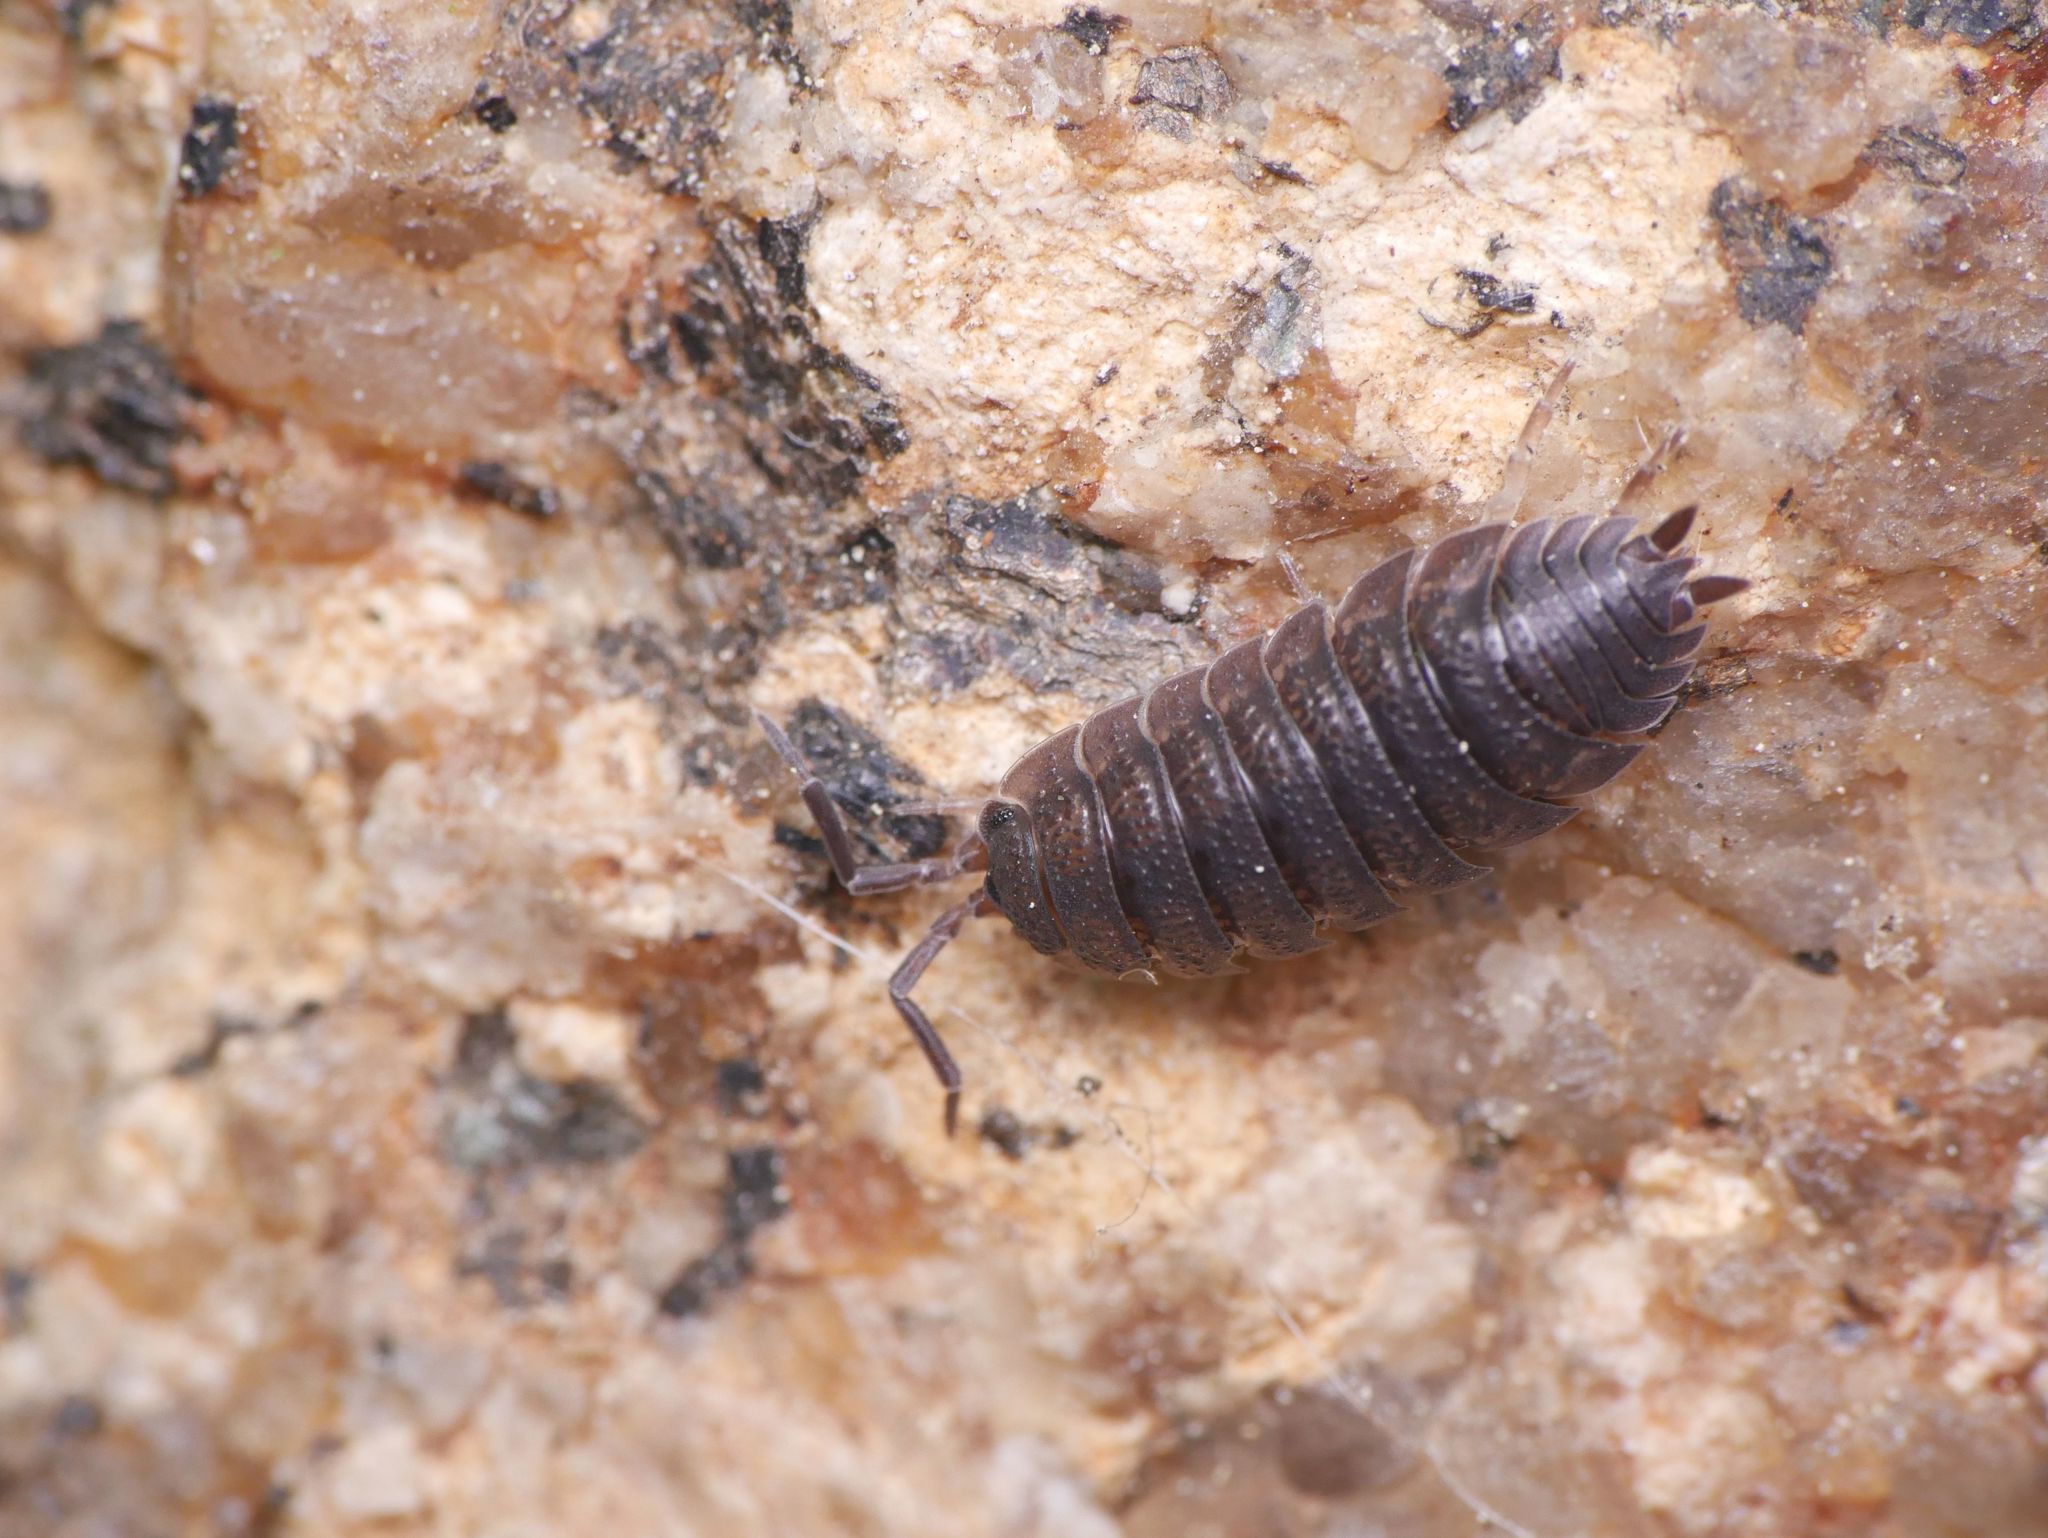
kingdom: Animalia
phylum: Arthropoda
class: Malacostraca
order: Isopoda
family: Porcellionidae
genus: Porcellio
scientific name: Porcellio scaber
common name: Common rough woodlouse
